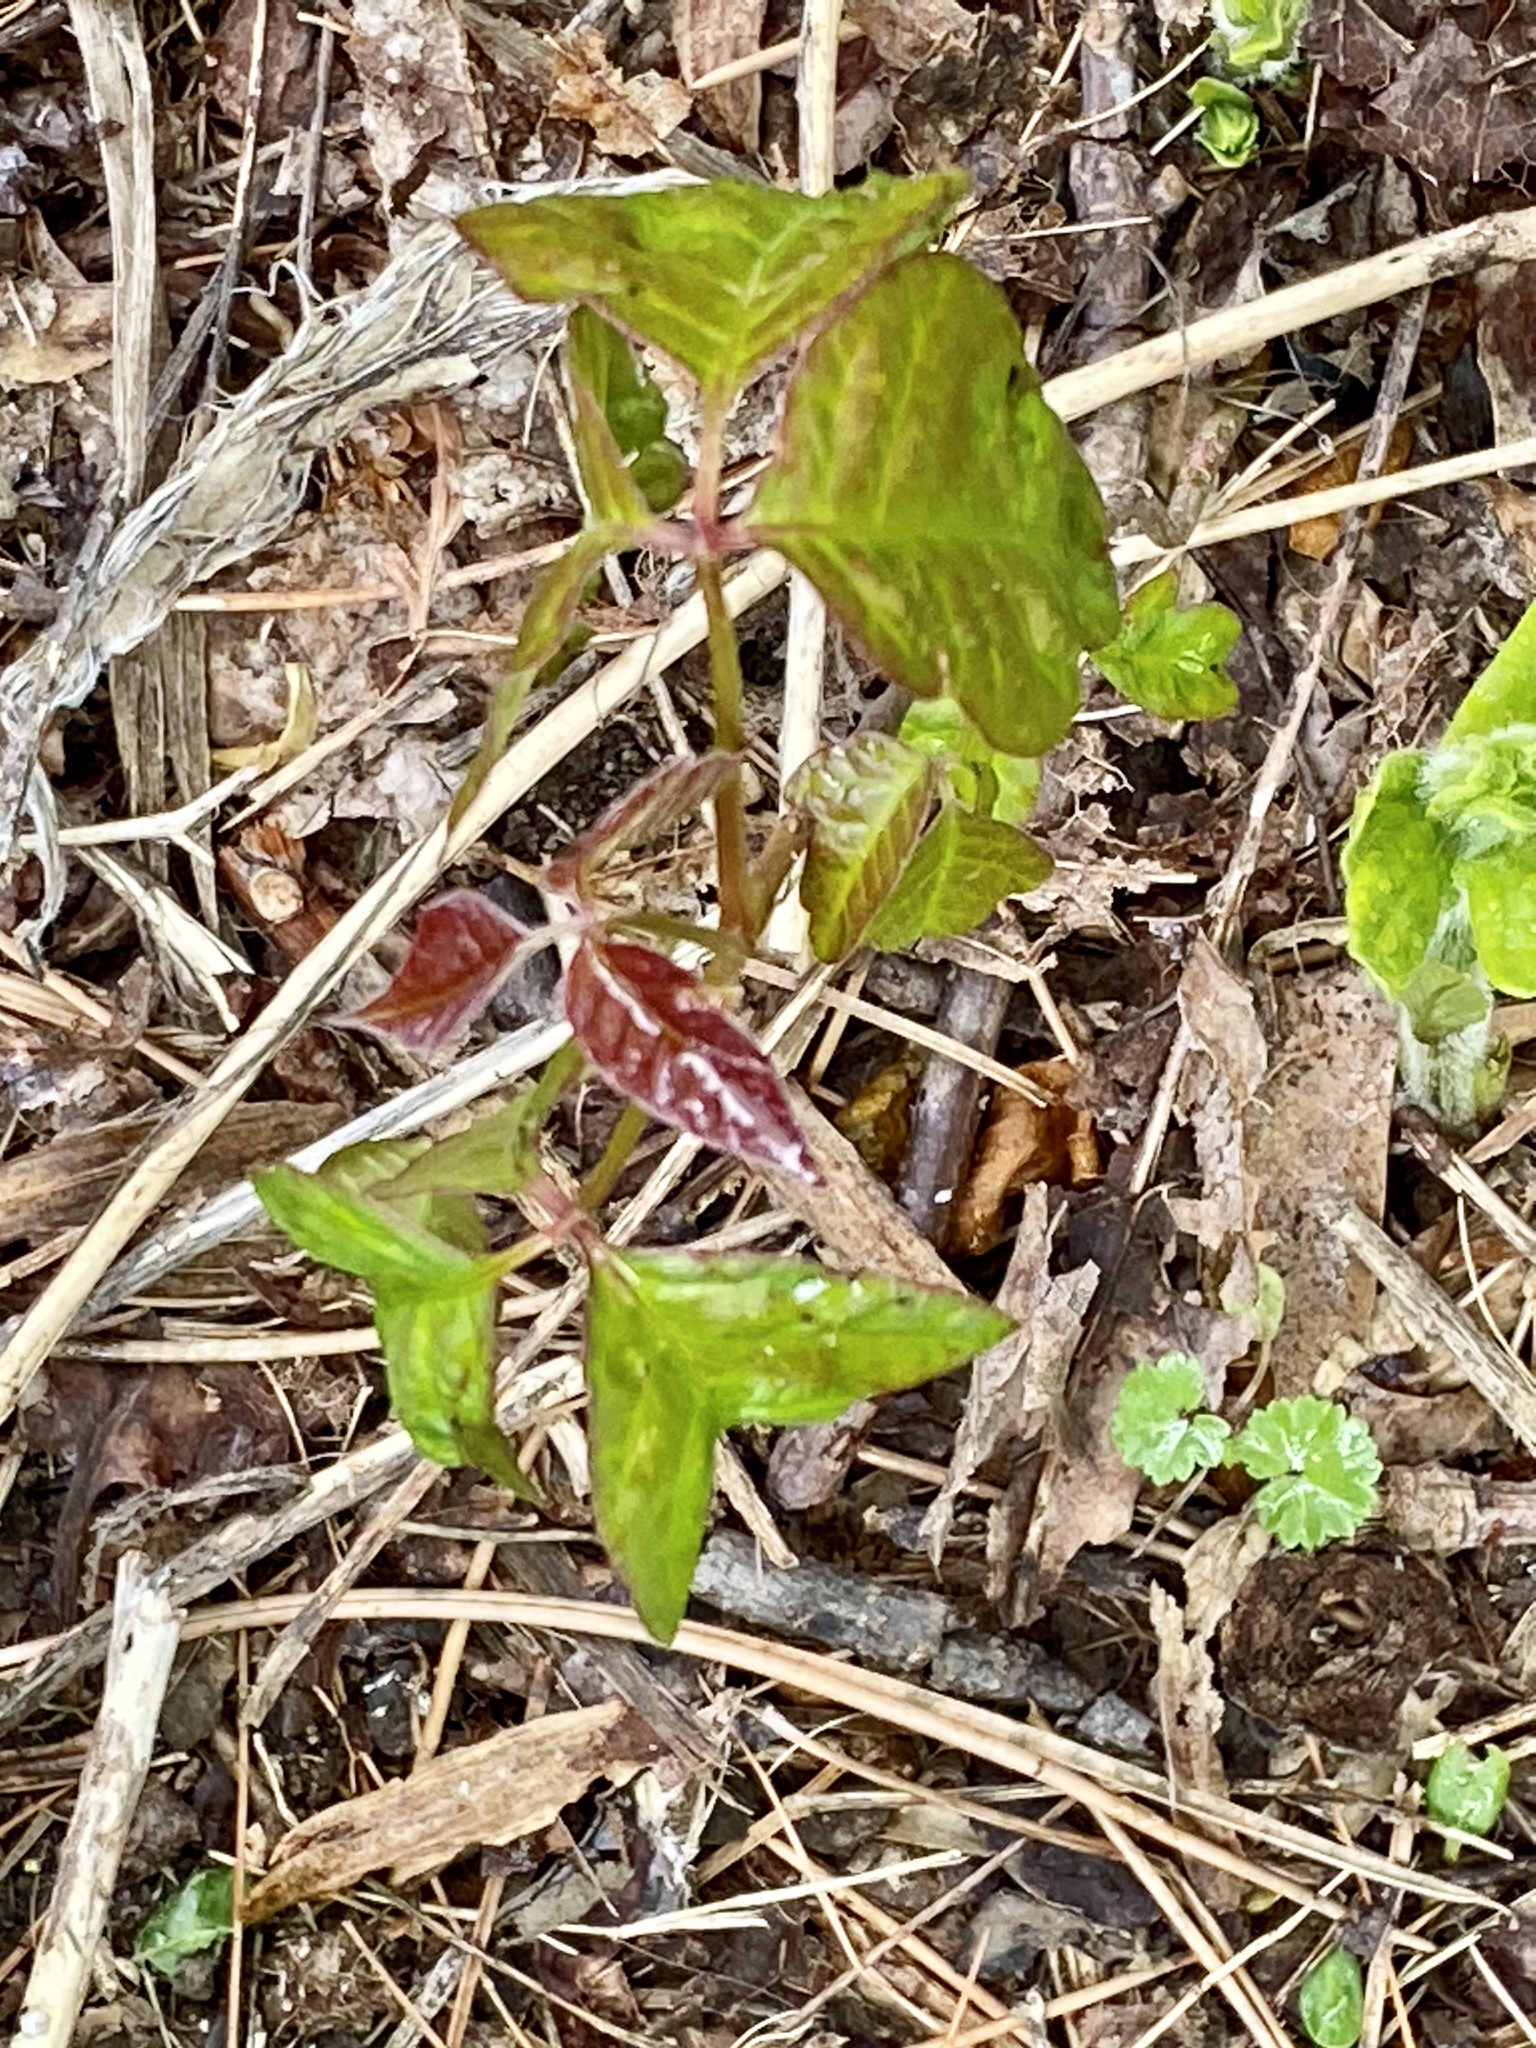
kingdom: Plantae
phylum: Tracheophyta
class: Magnoliopsida
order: Sapindales
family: Anacardiaceae
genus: Toxicodendron
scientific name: Toxicodendron radicans
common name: Poison ivy
